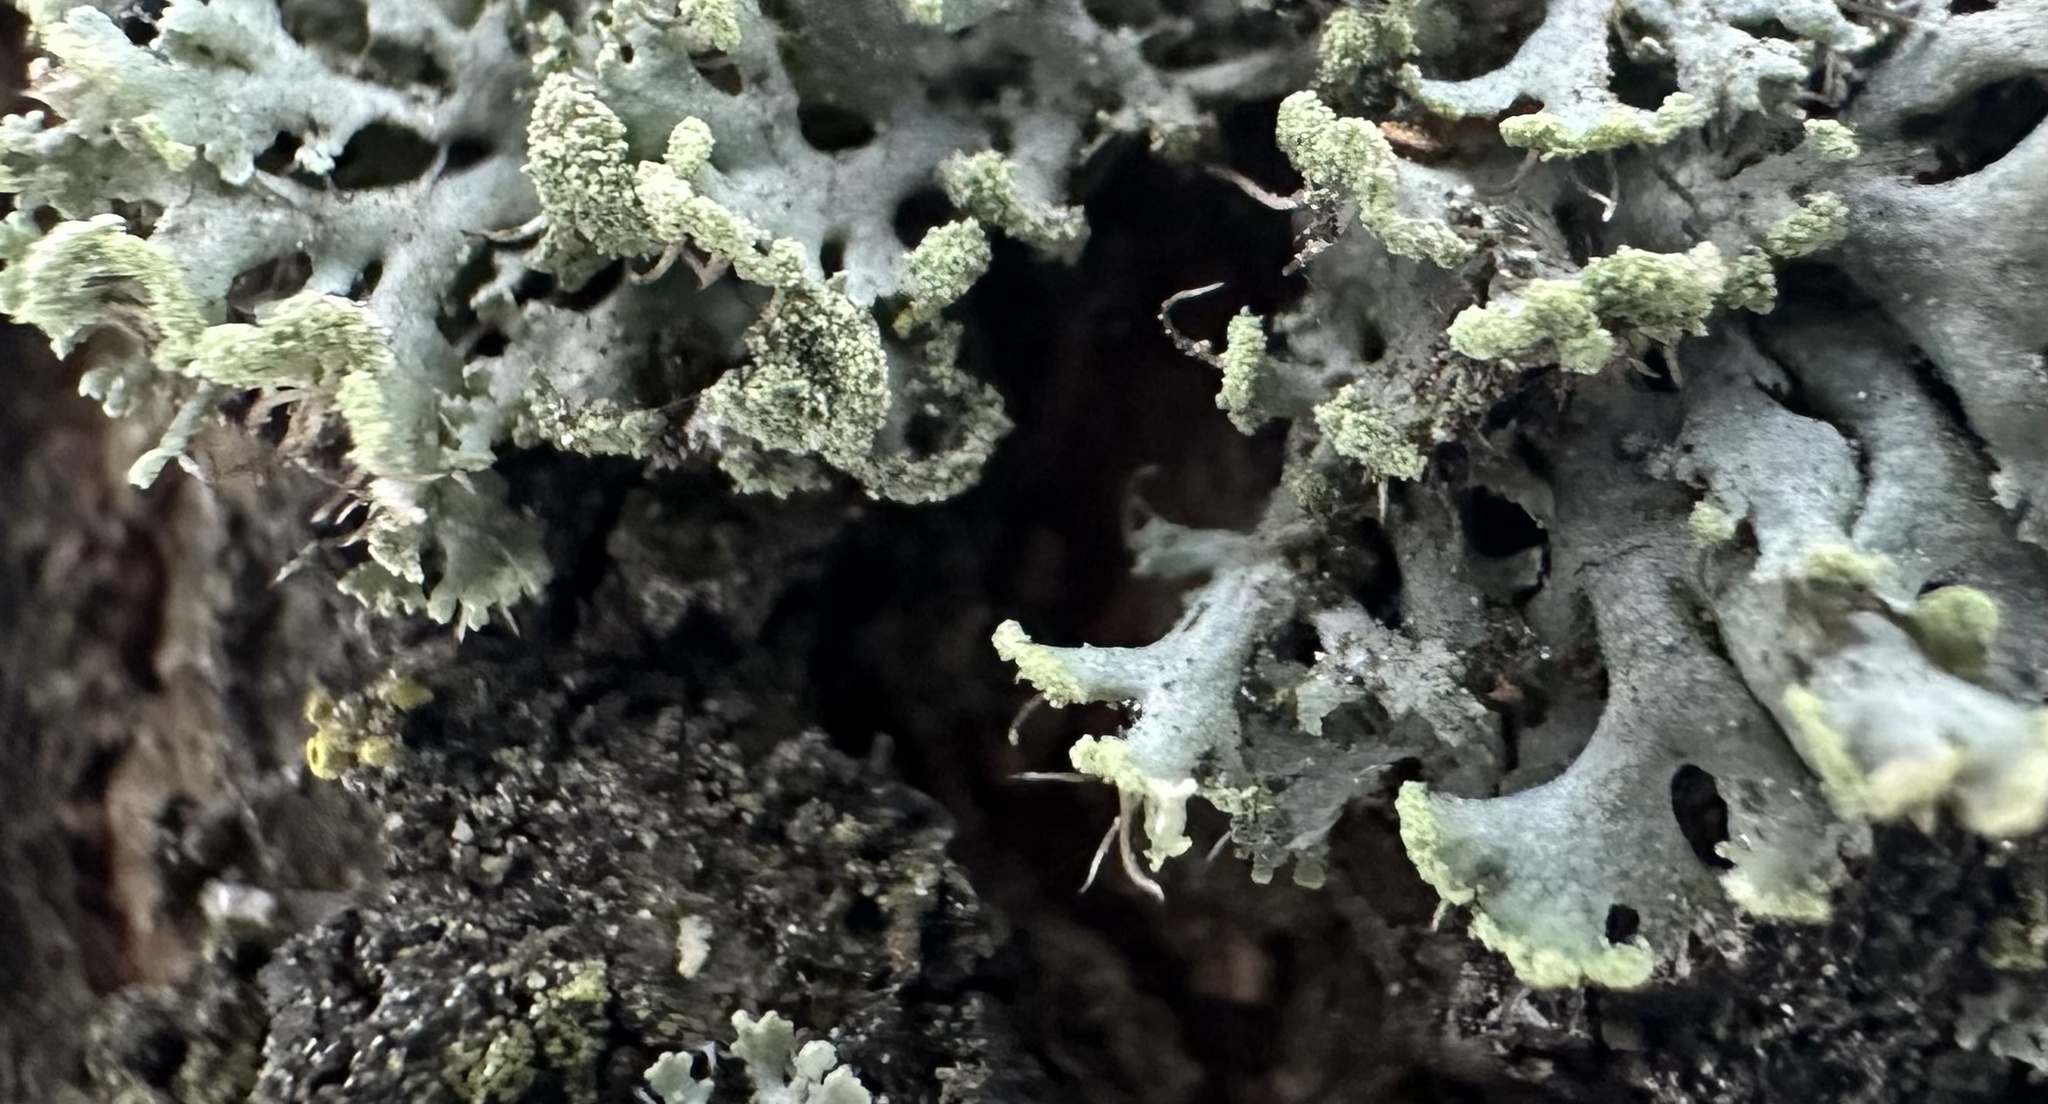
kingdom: Fungi
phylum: Ascomycota
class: Lecanoromycetes
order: Caliciales
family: Physciaceae
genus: Physcia
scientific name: Physcia tenella
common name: Fringed rosette lichen
